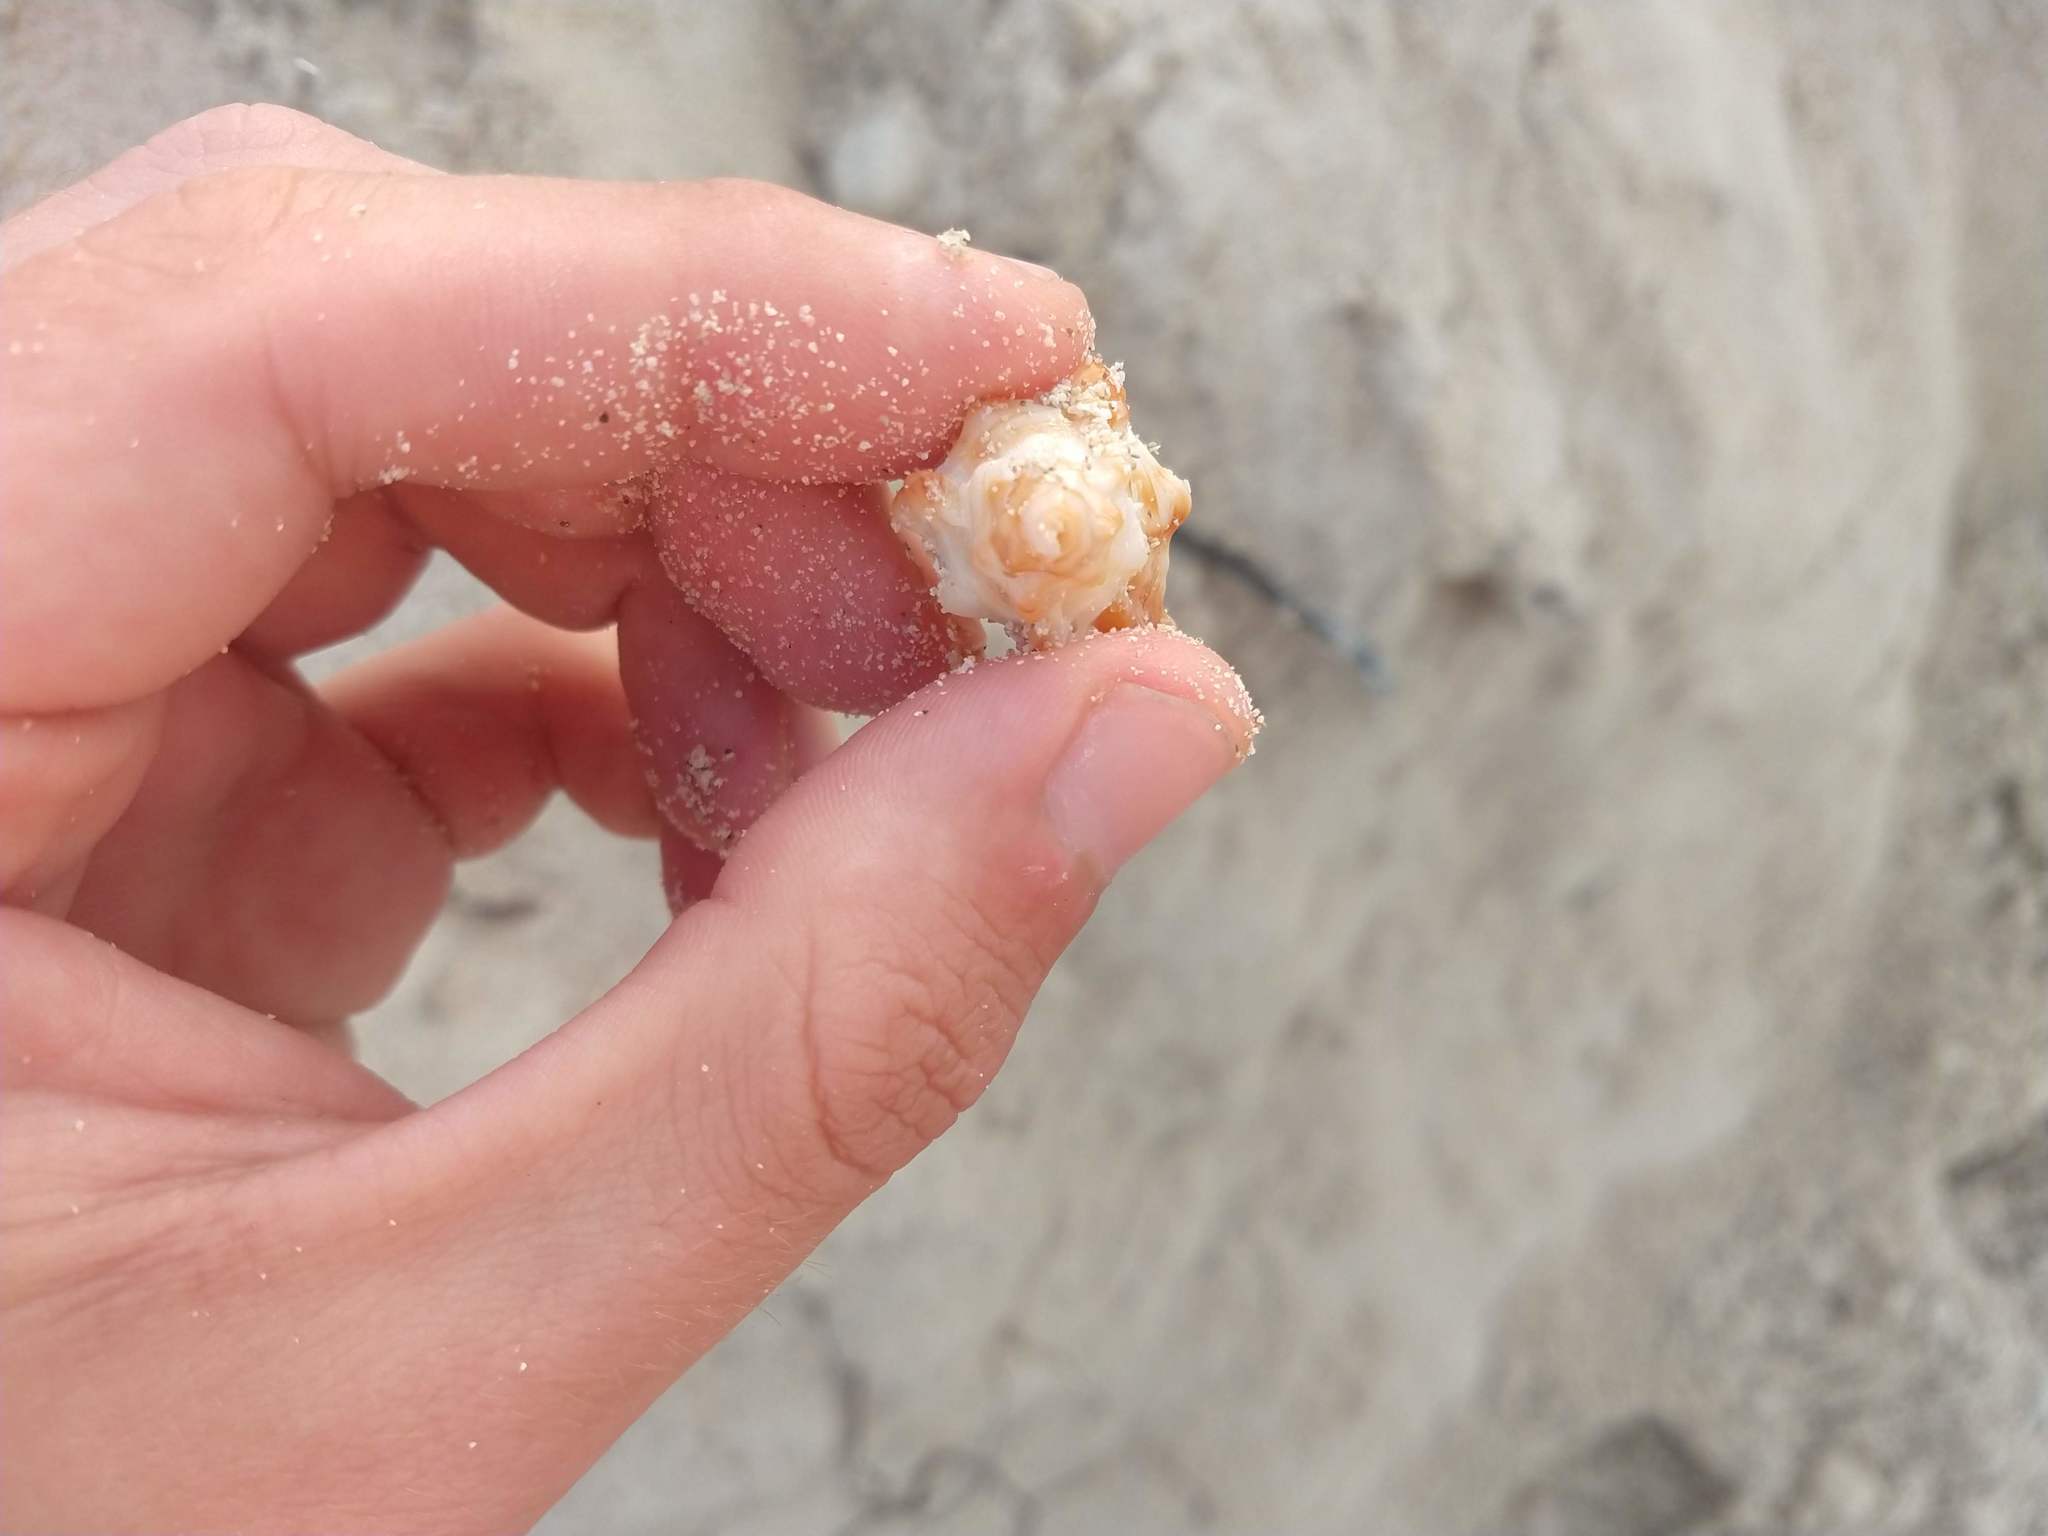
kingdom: Animalia
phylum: Mollusca
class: Gastropoda
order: Neogastropoda
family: Muricidae
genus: Chicoreus
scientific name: Chicoreus florifer
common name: Flowery lace murex
